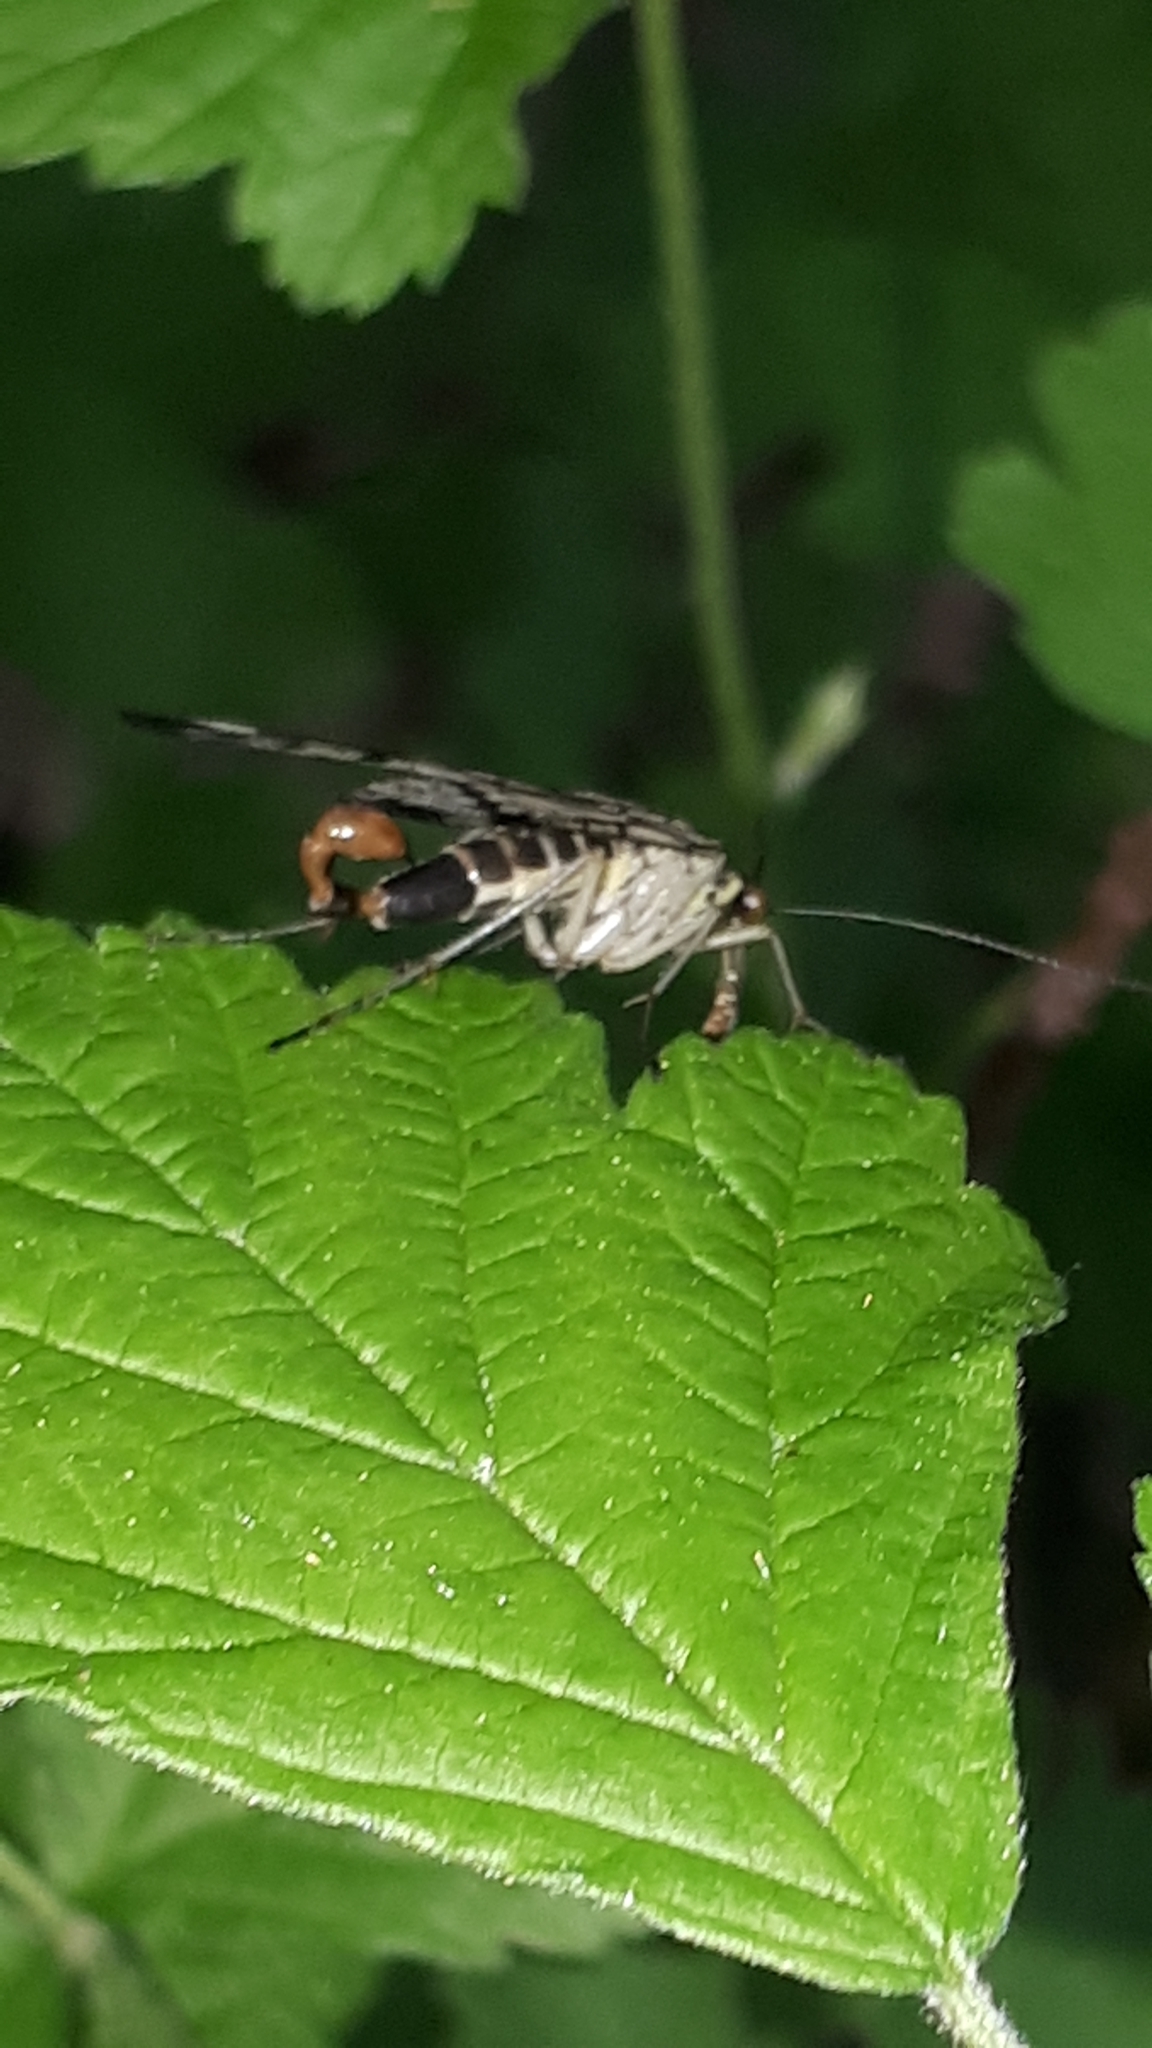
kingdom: Animalia
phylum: Arthropoda
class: Insecta
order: Mecoptera
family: Panorpidae
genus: Panorpa
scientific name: Panorpa communis
